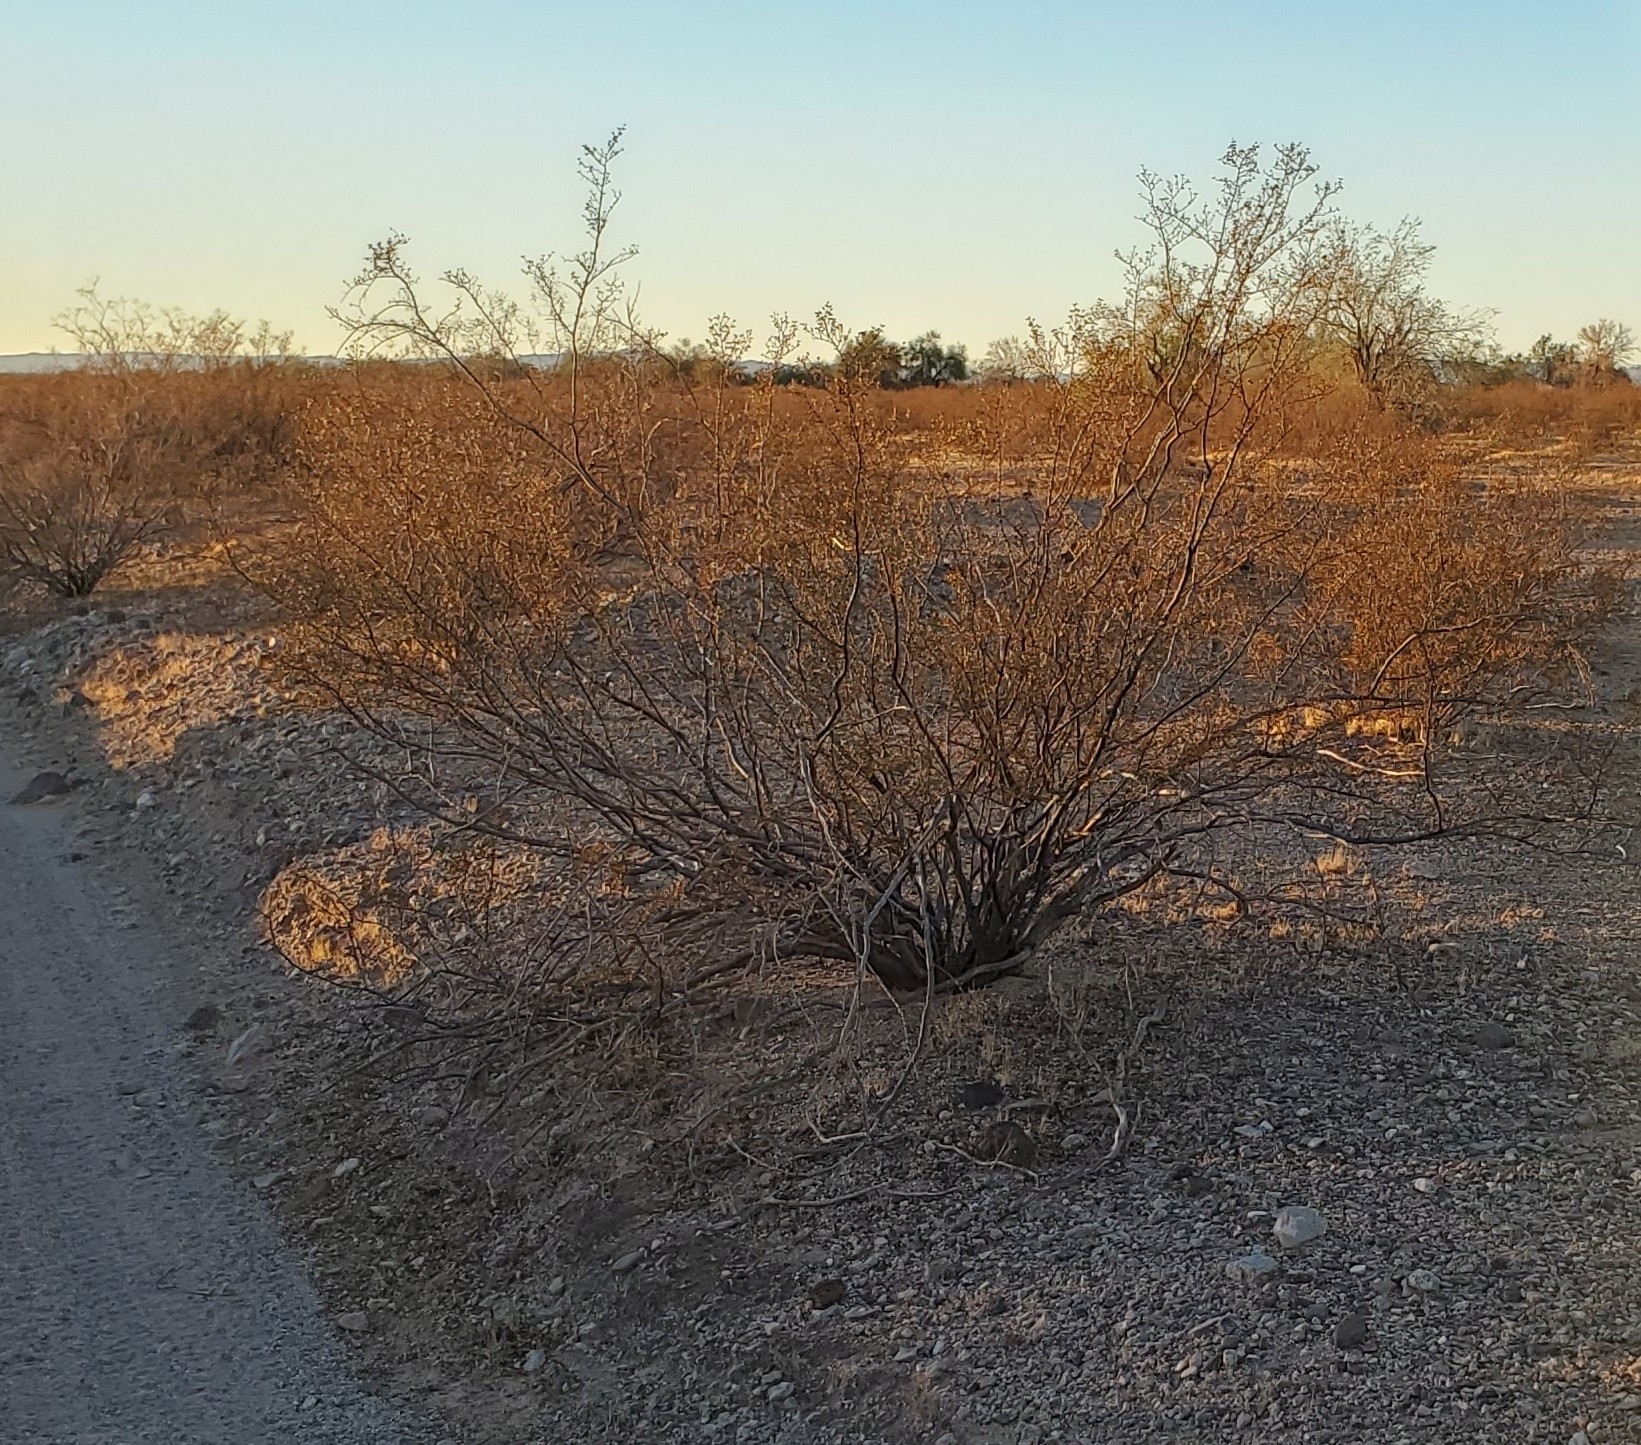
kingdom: Plantae
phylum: Tracheophyta
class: Magnoliopsida
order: Zygophyllales
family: Zygophyllaceae
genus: Larrea
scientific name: Larrea tridentata
